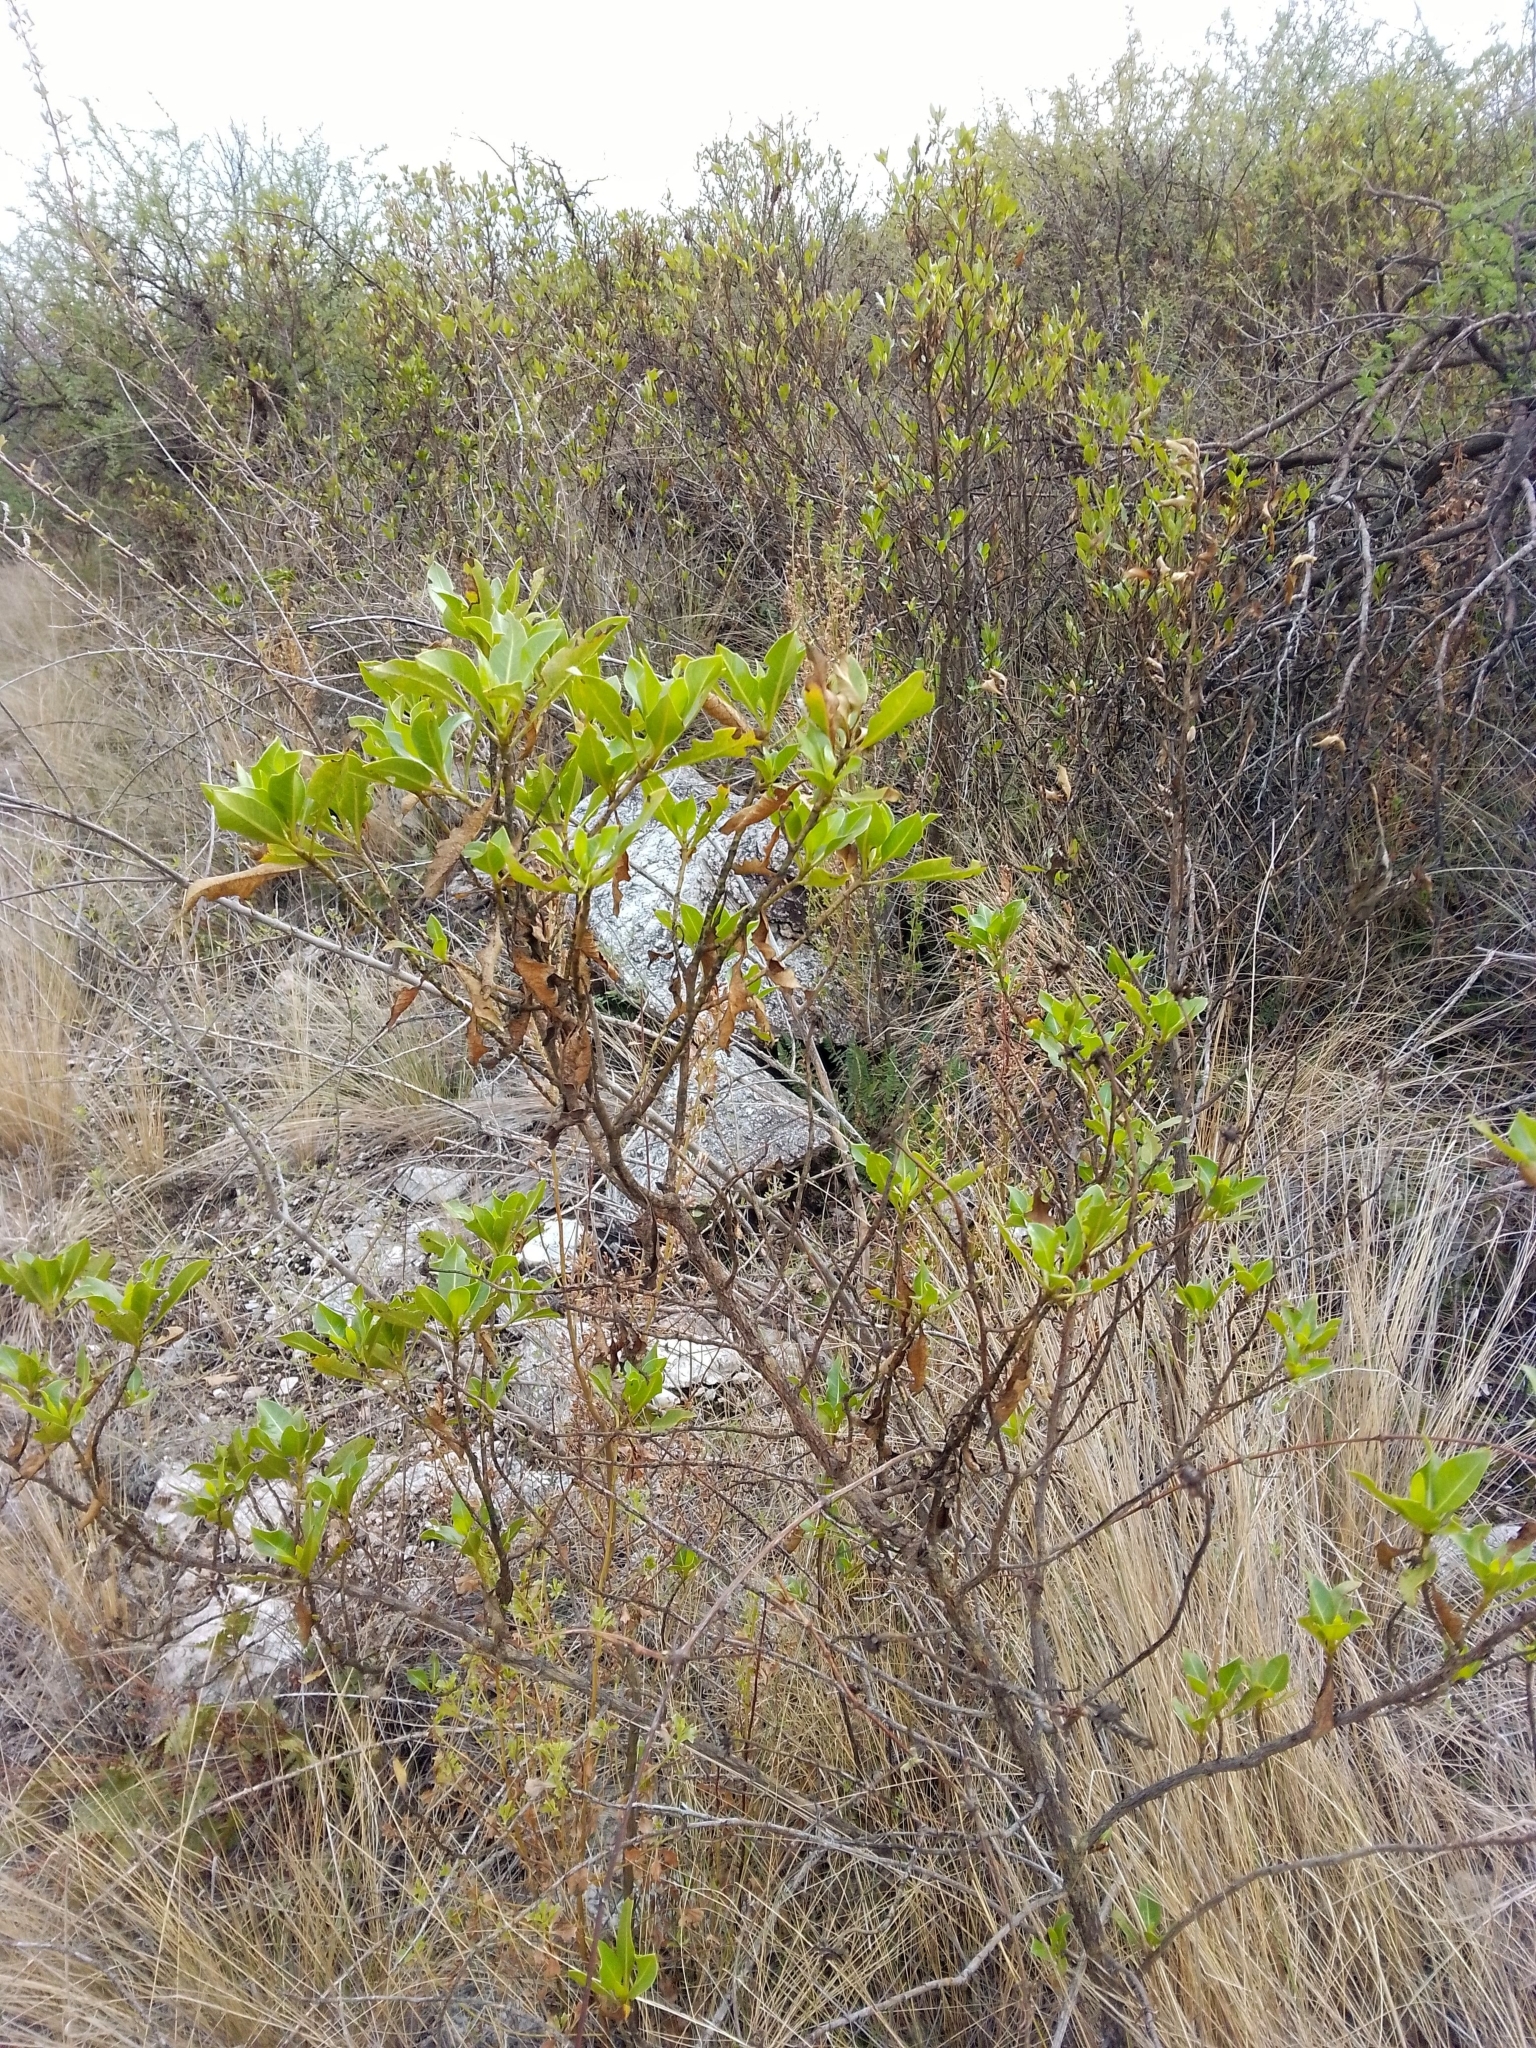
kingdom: Plantae
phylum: Tracheophyta
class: Magnoliopsida
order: Asterales
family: Asteraceae
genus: Flourensia
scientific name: Flourensia thurifera
